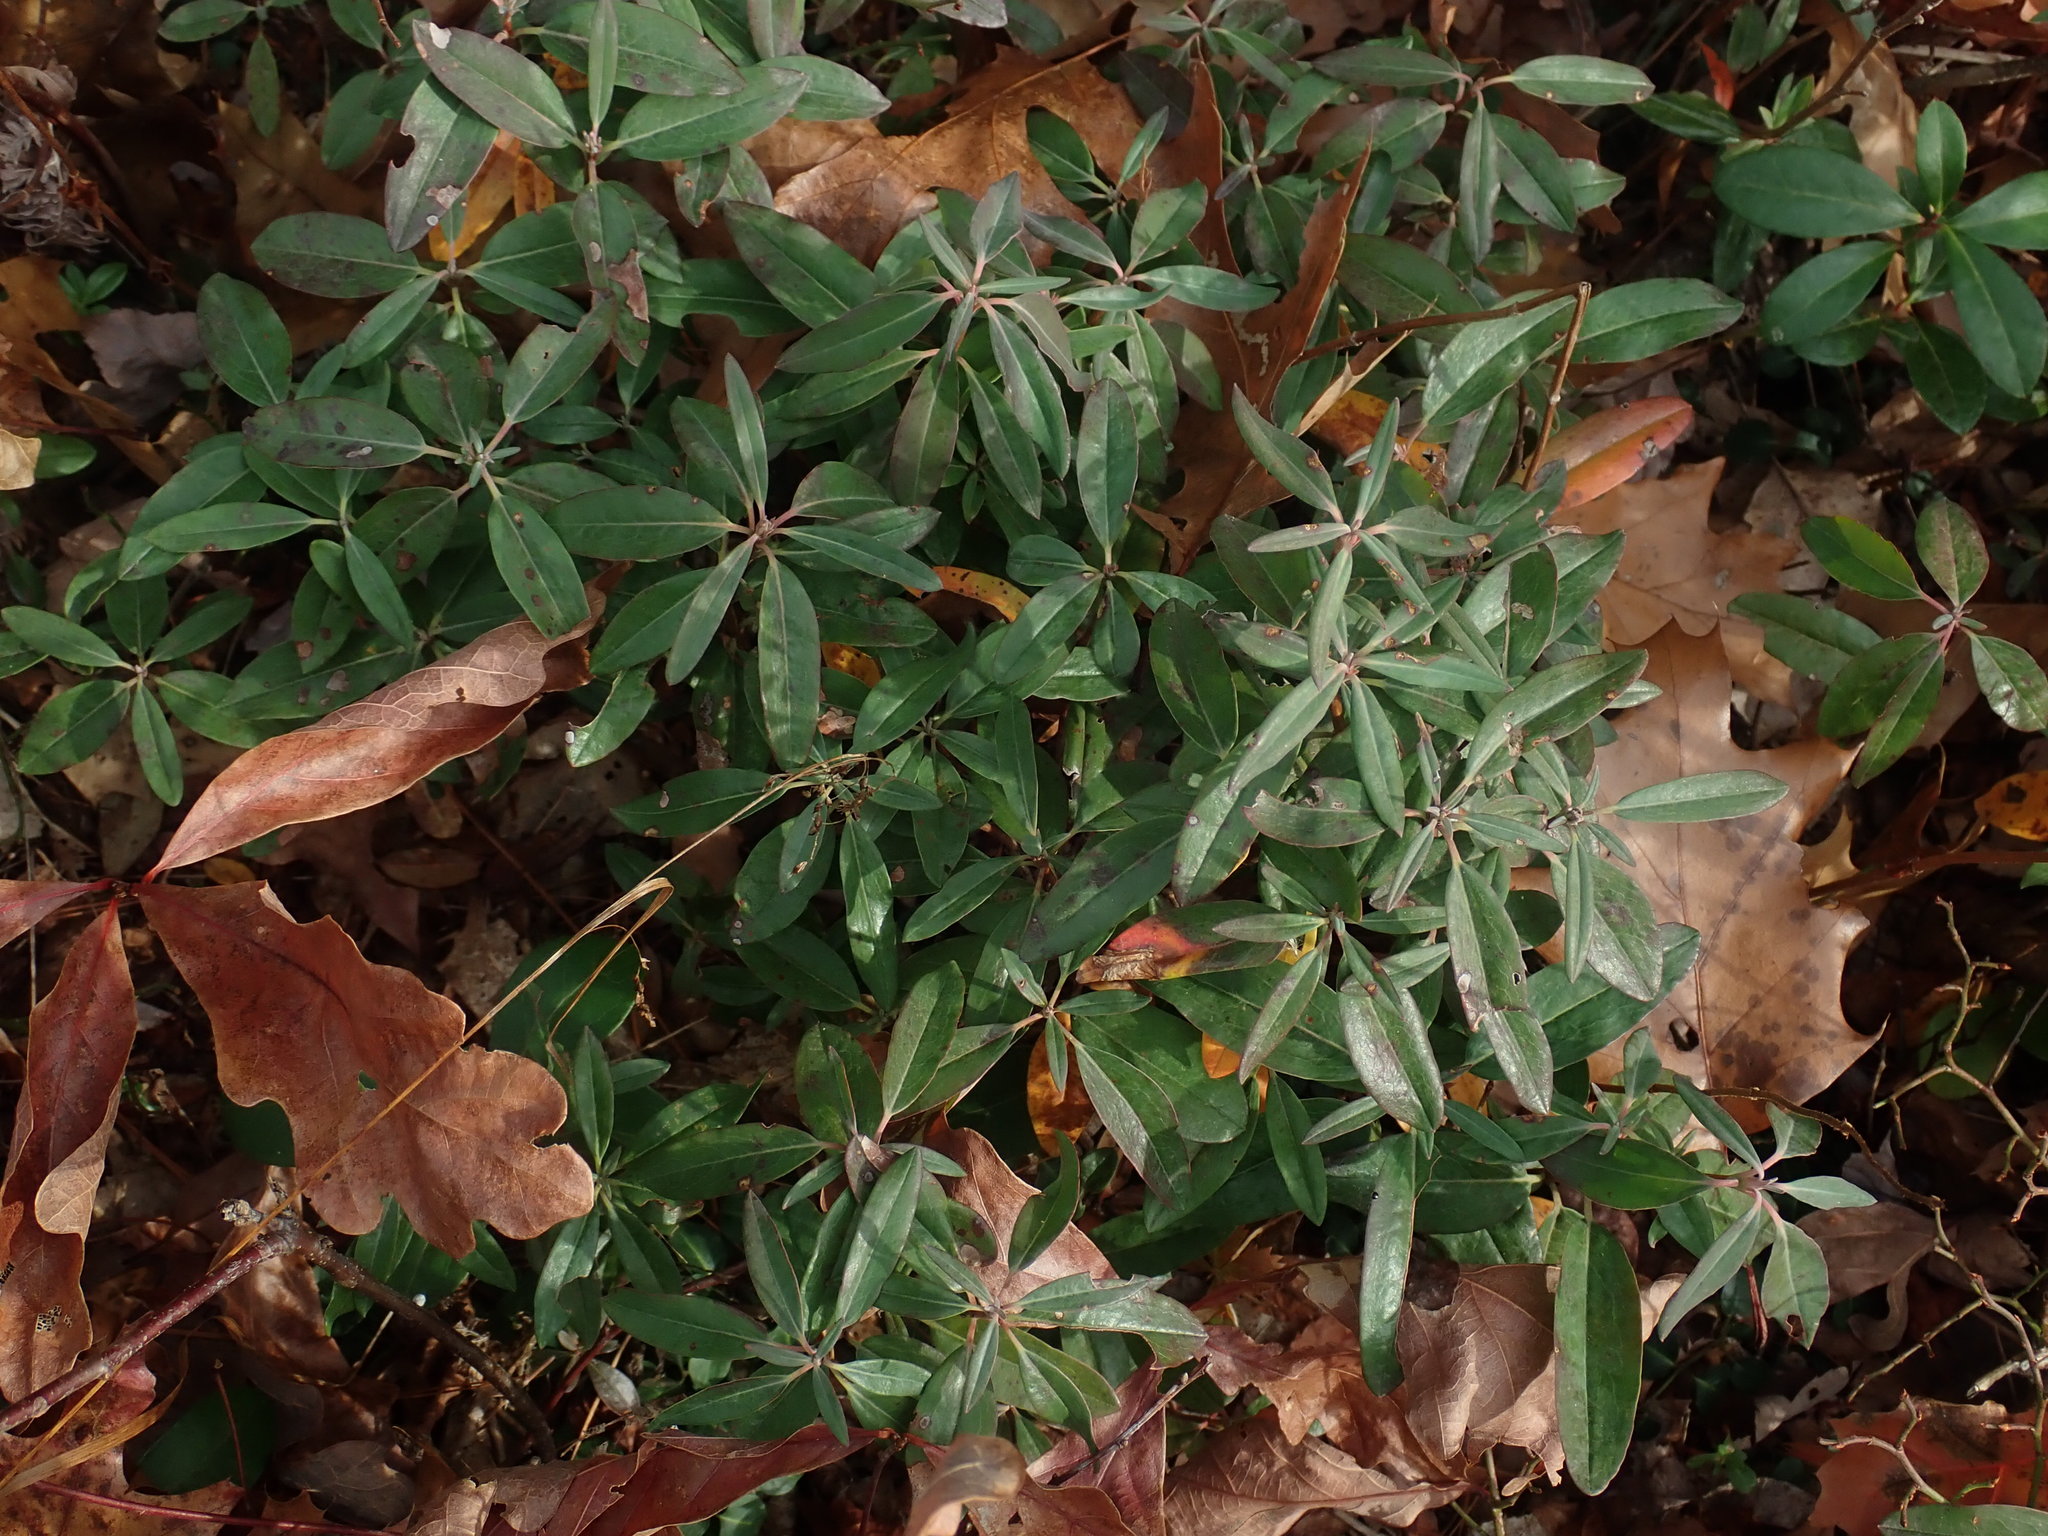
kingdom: Plantae
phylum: Tracheophyta
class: Magnoliopsida
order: Ericales
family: Ericaceae
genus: Kalmia
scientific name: Kalmia angustifolia
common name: Sheep-laurel
